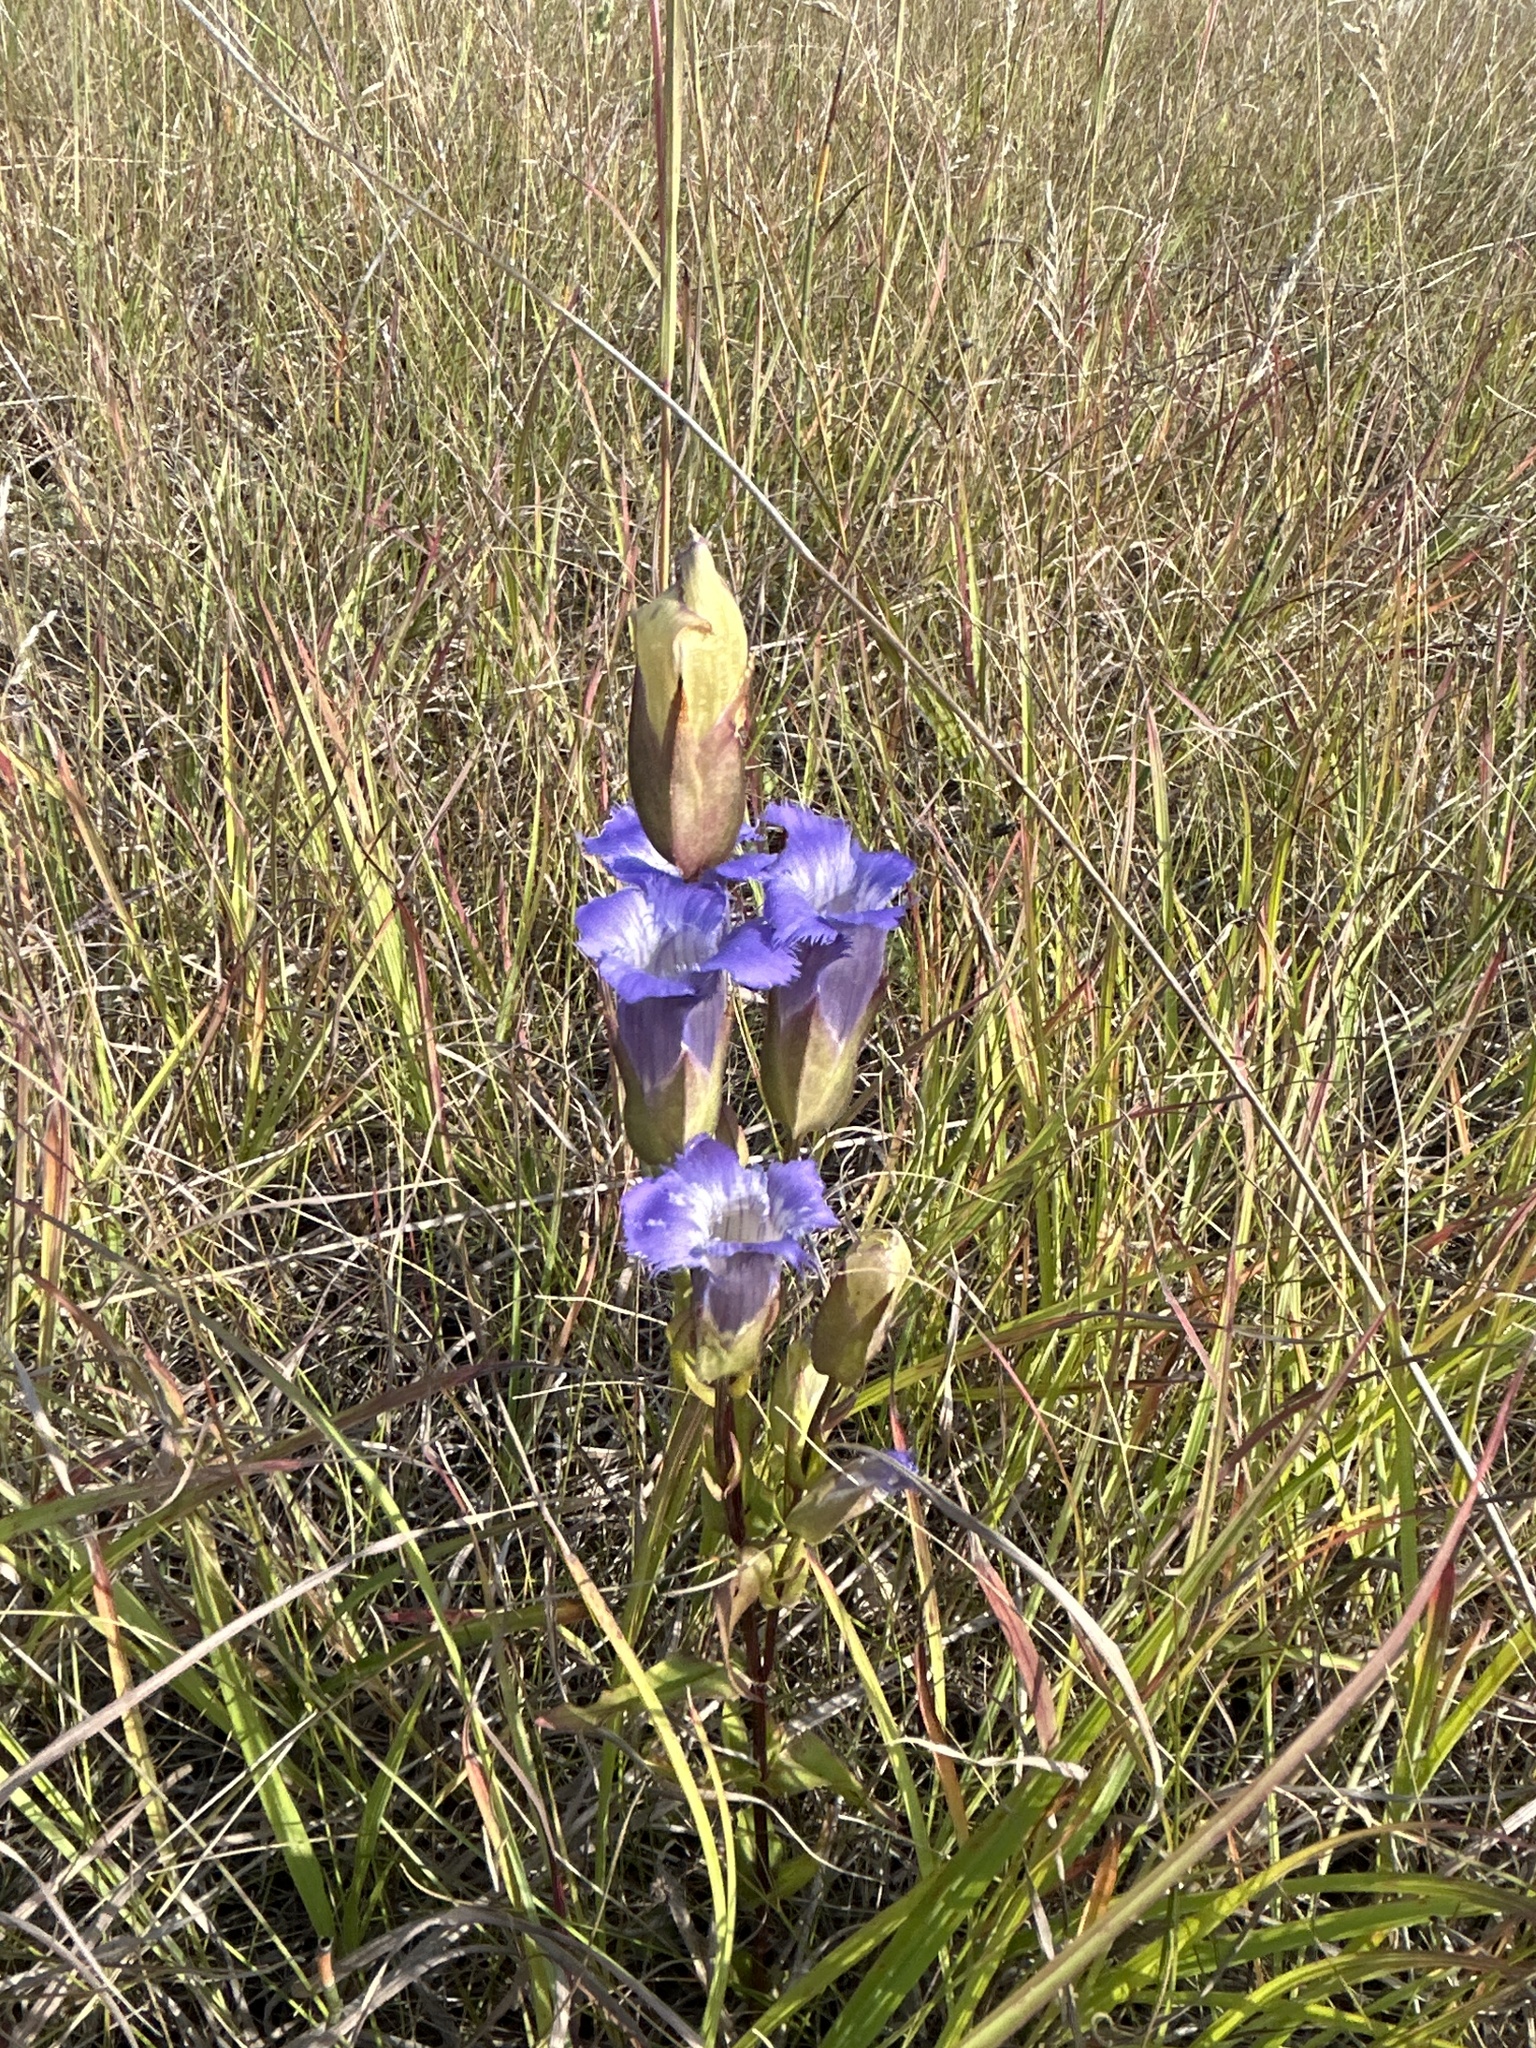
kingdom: Plantae
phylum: Tracheophyta
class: Magnoliopsida
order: Gentianales
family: Gentianaceae
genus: Gentianopsis
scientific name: Gentianopsis crinita
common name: Fringed-gentian
